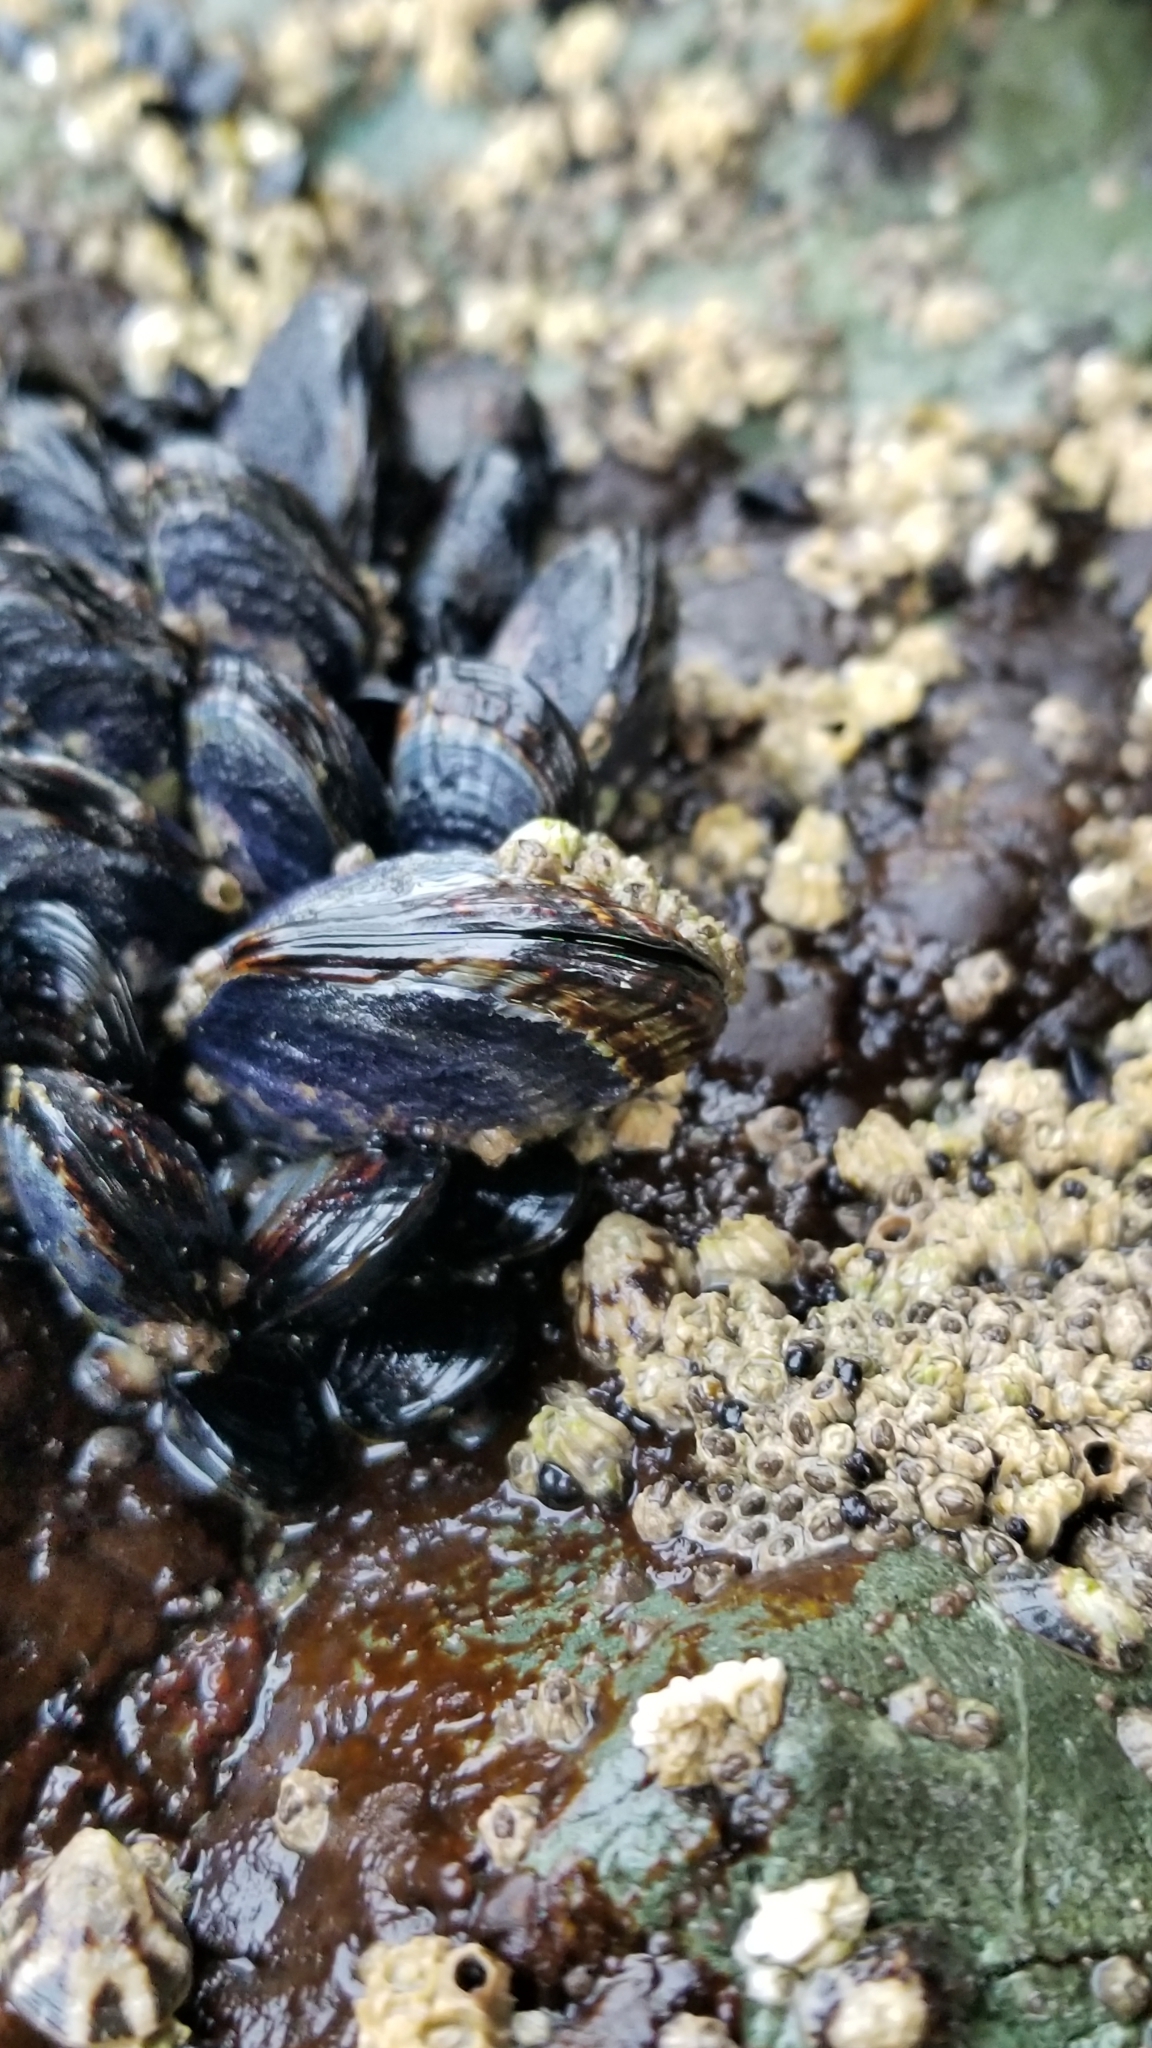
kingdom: Animalia
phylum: Mollusca
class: Bivalvia
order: Mytilida
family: Mytilidae
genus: Mytilus
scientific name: Mytilus californianus
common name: California mussel
